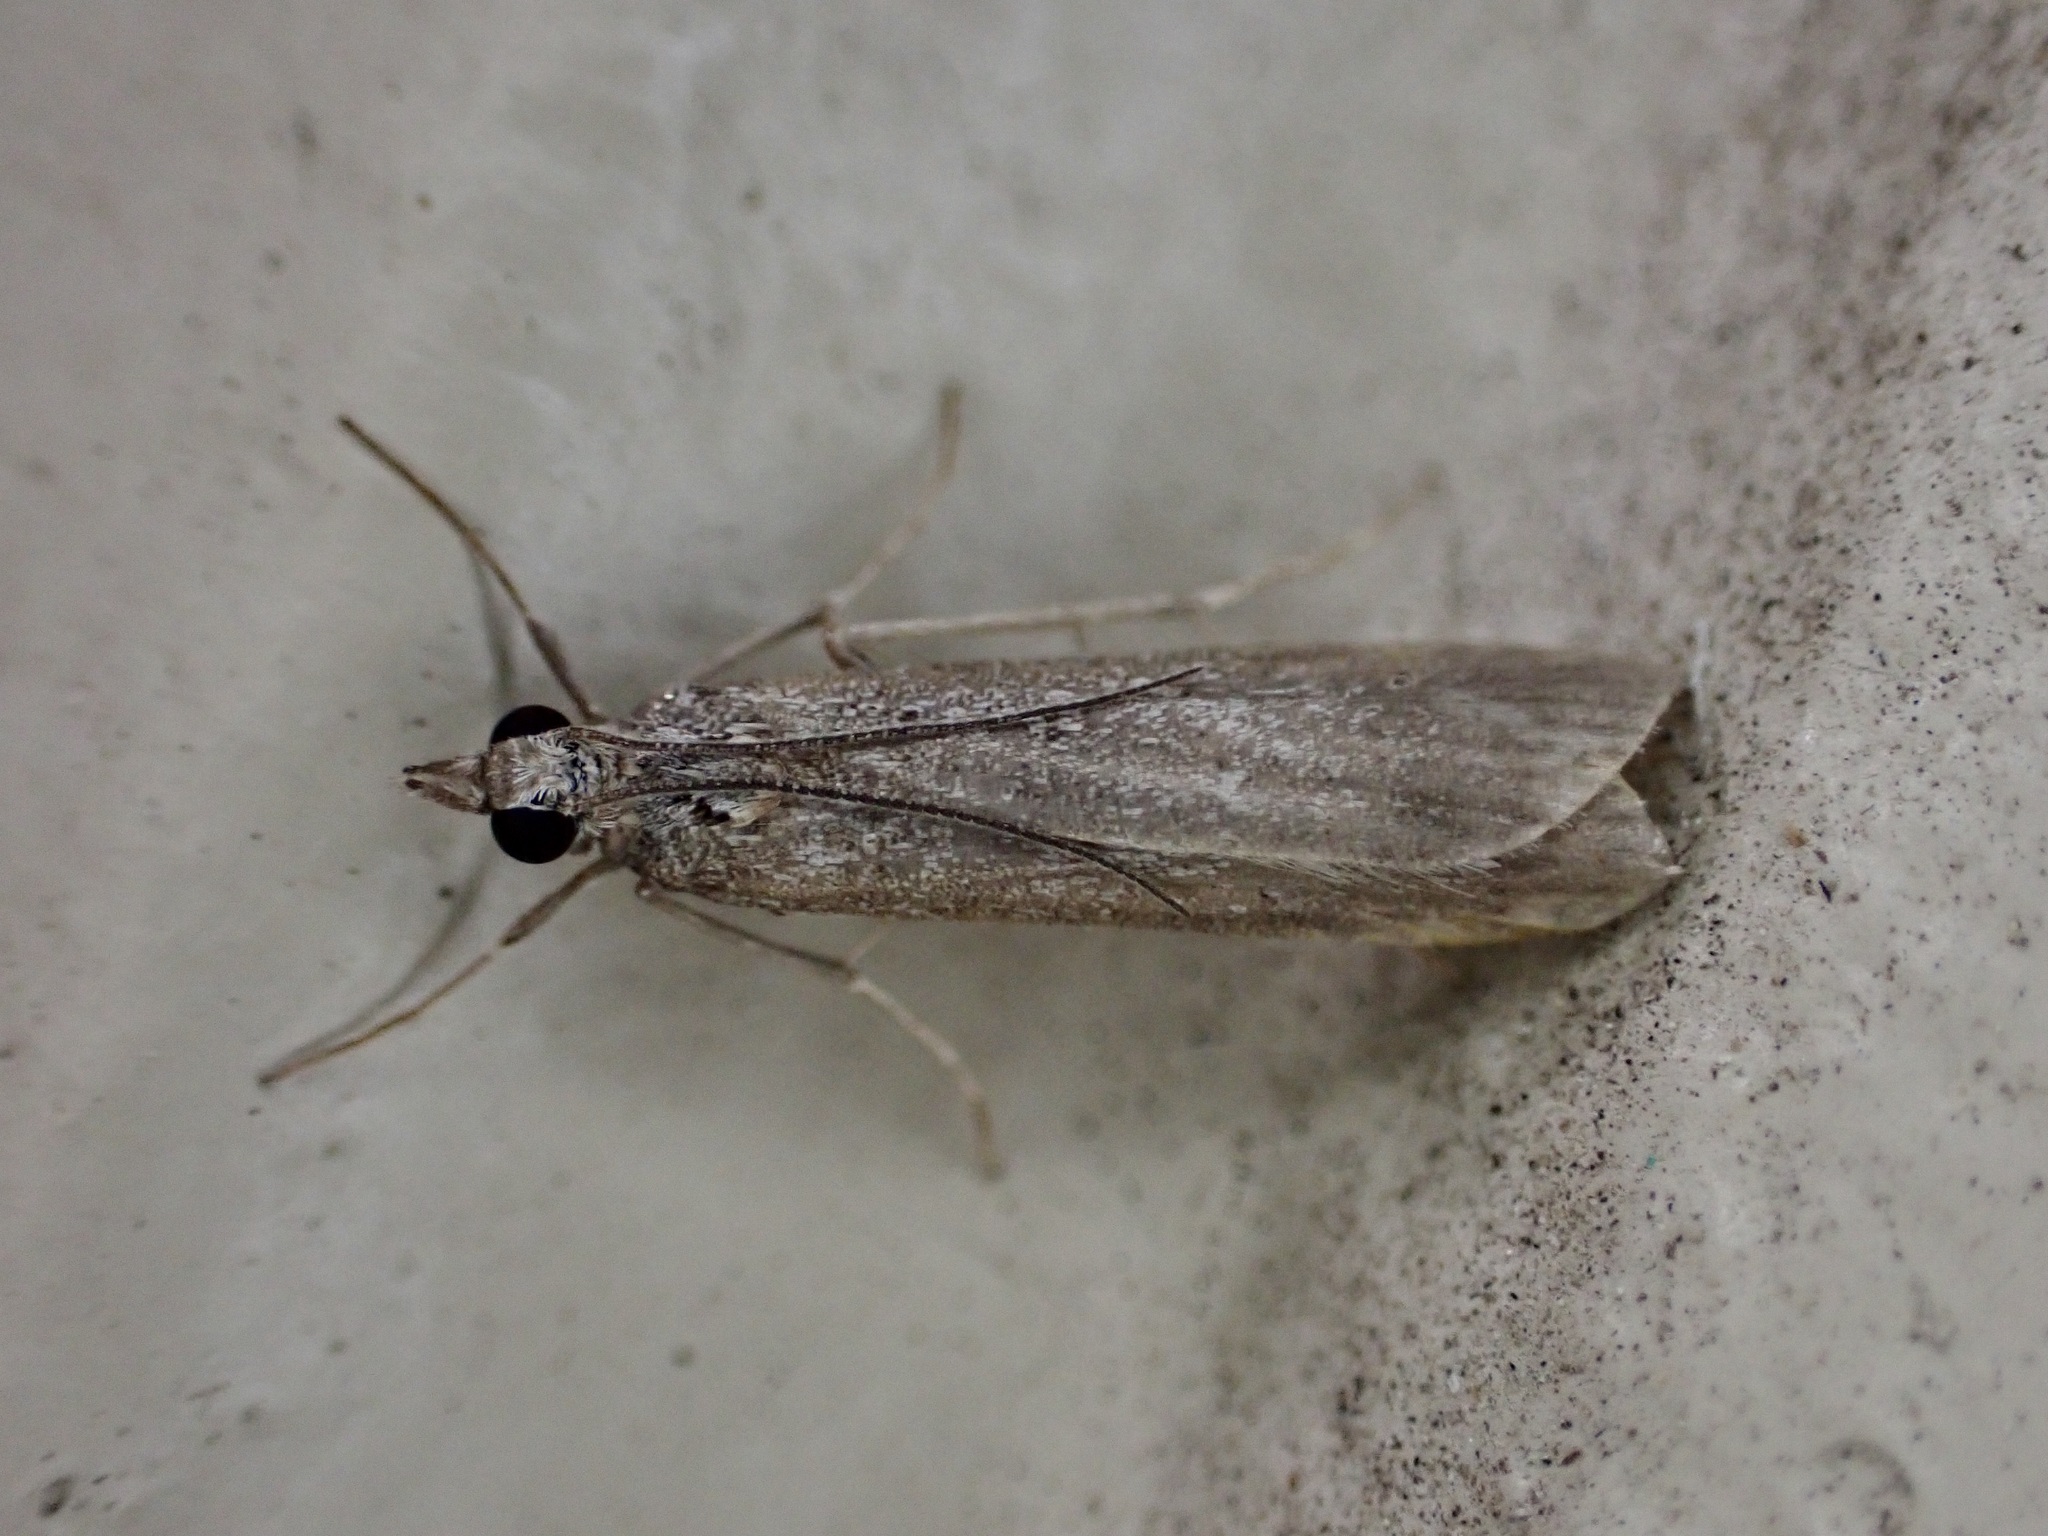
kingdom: Animalia
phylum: Arthropoda
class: Insecta
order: Lepidoptera
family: Crambidae
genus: Eudonia
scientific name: Eudonia leptalea
